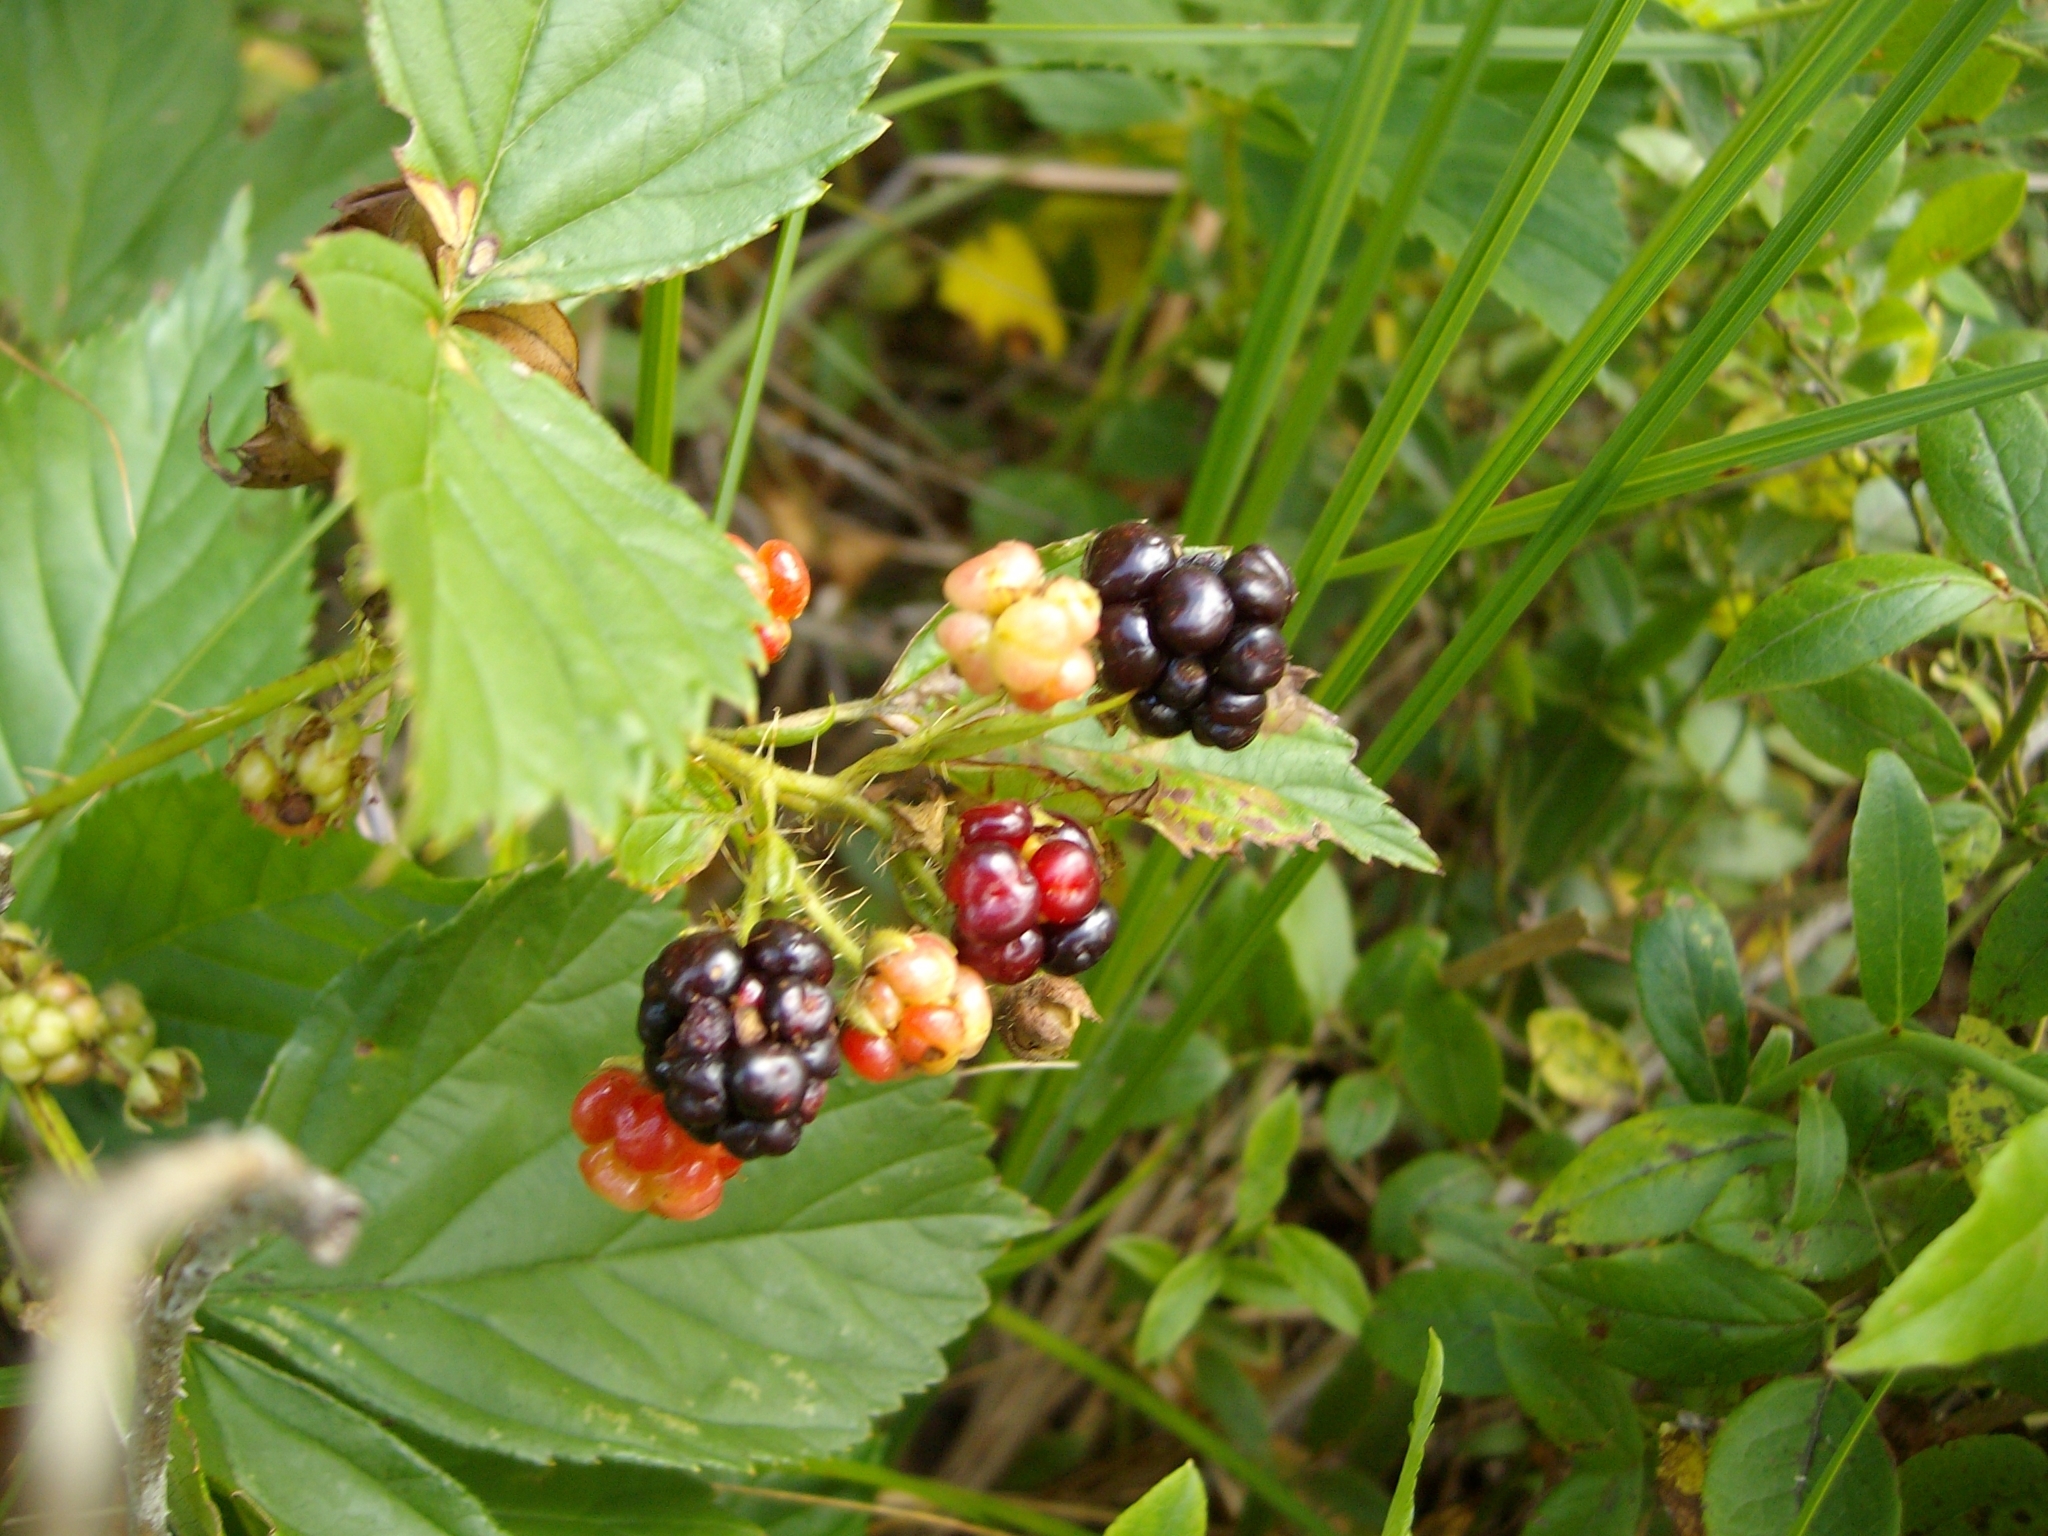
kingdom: Plantae
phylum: Tracheophyta
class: Magnoliopsida
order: Rosales
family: Rosaceae
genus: Rubus
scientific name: Rubus allegheniensis
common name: Allegheny blackberry
